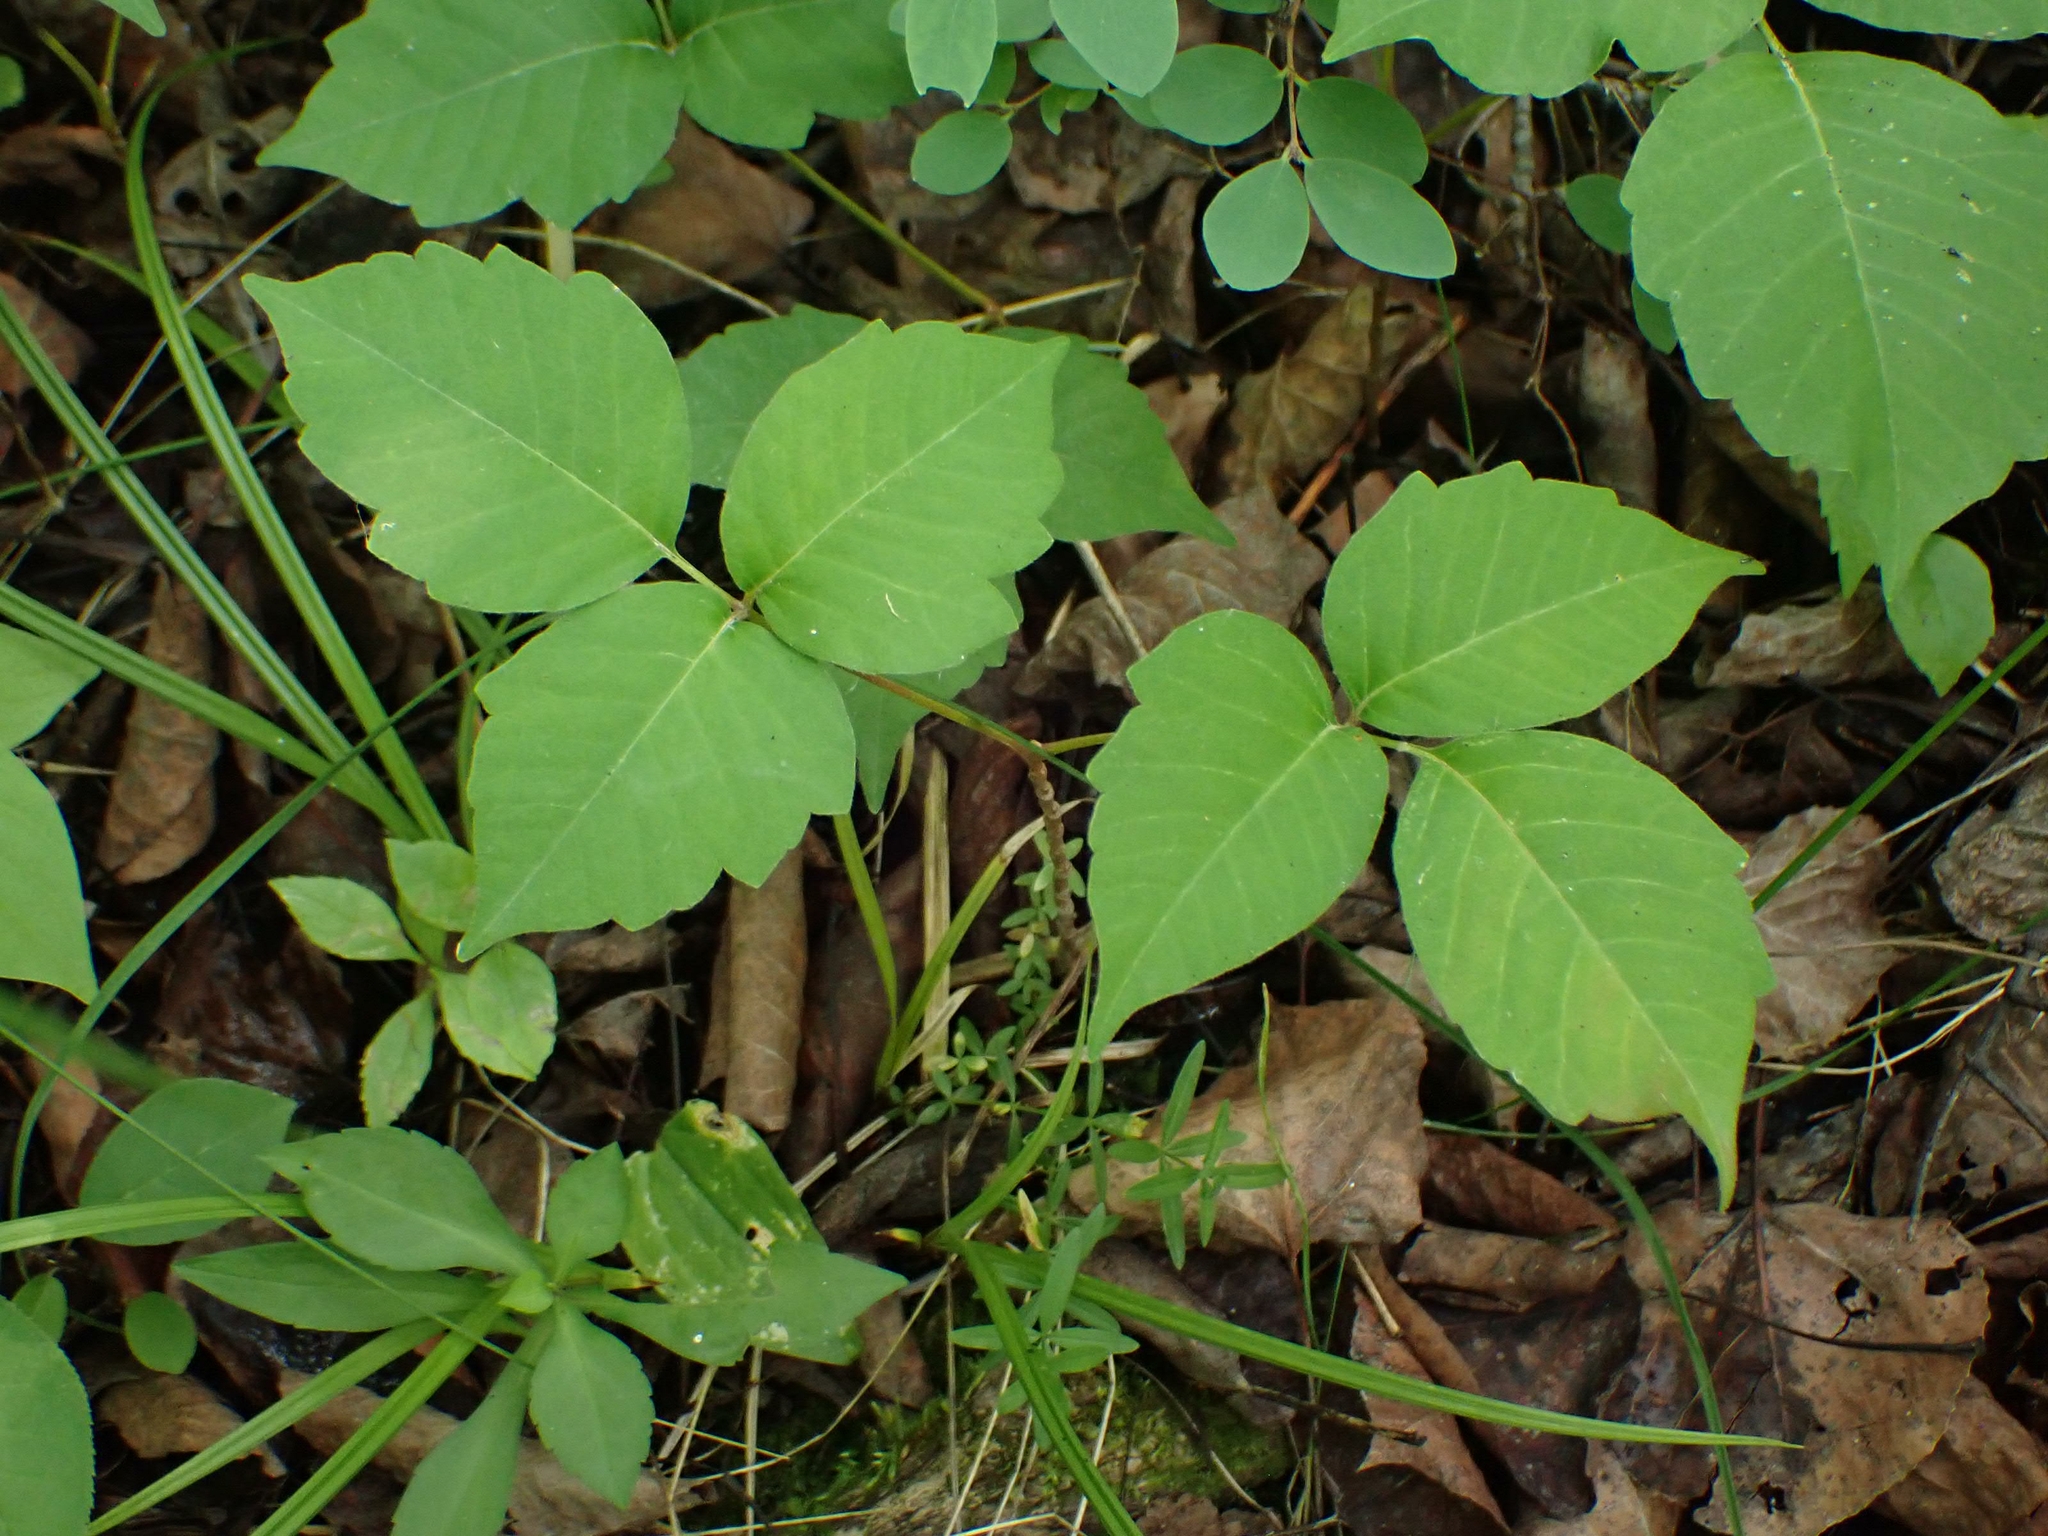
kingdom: Plantae
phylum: Tracheophyta
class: Magnoliopsida
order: Sapindales
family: Anacardiaceae
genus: Toxicodendron
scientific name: Toxicodendron rydbergii
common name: Rydberg's poison-ivy
